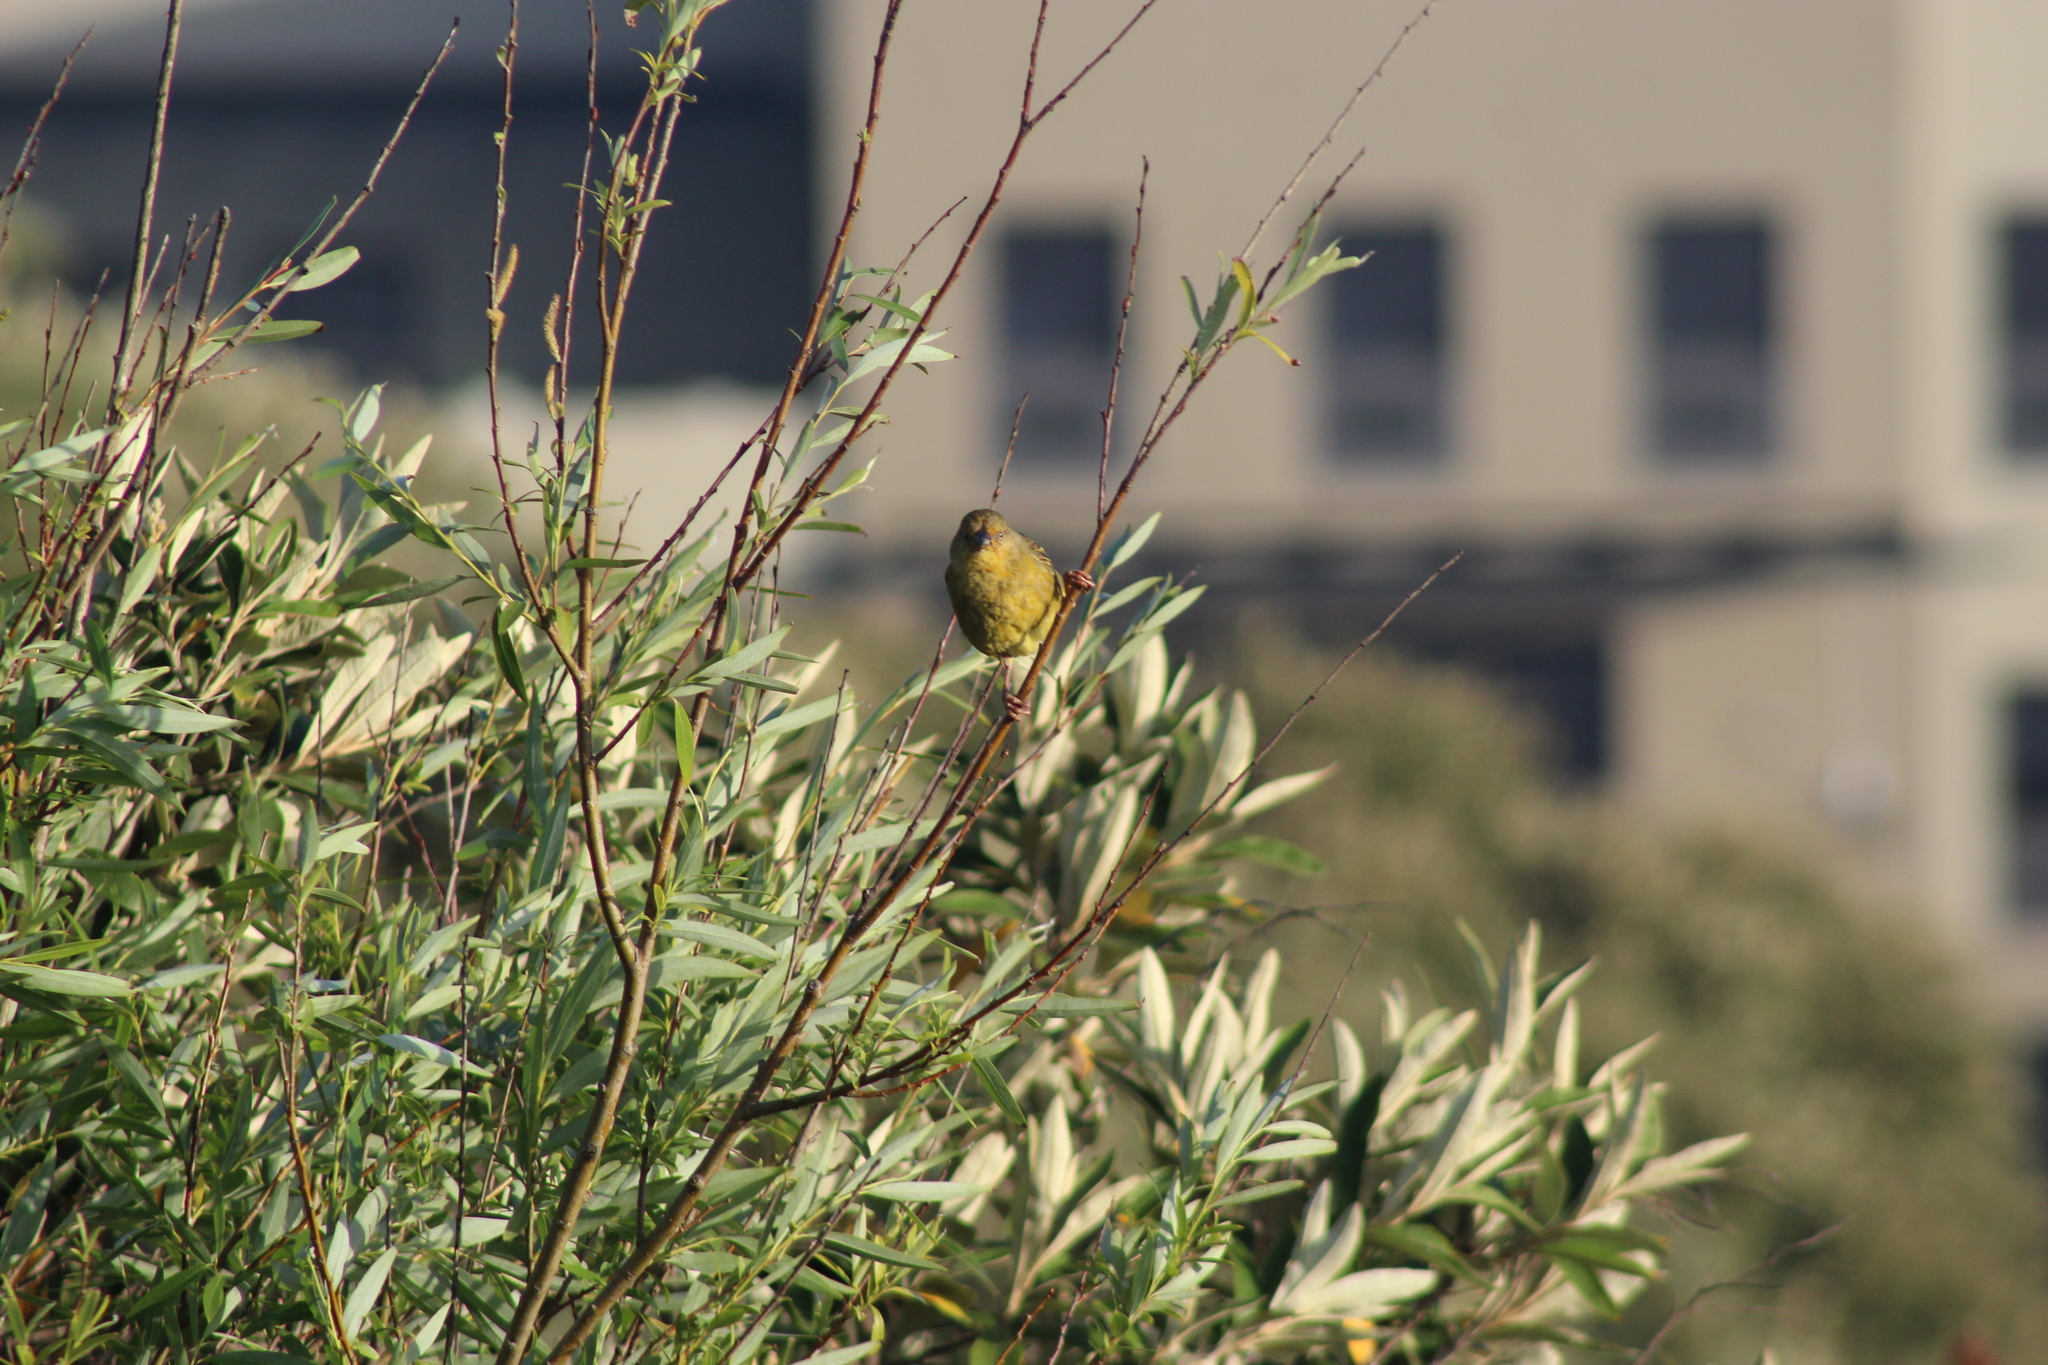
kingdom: Animalia
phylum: Chordata
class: Aves
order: Passeriformes
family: Ploceidae
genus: Ploceus
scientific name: Ploceus capensis
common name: Cape weaver
